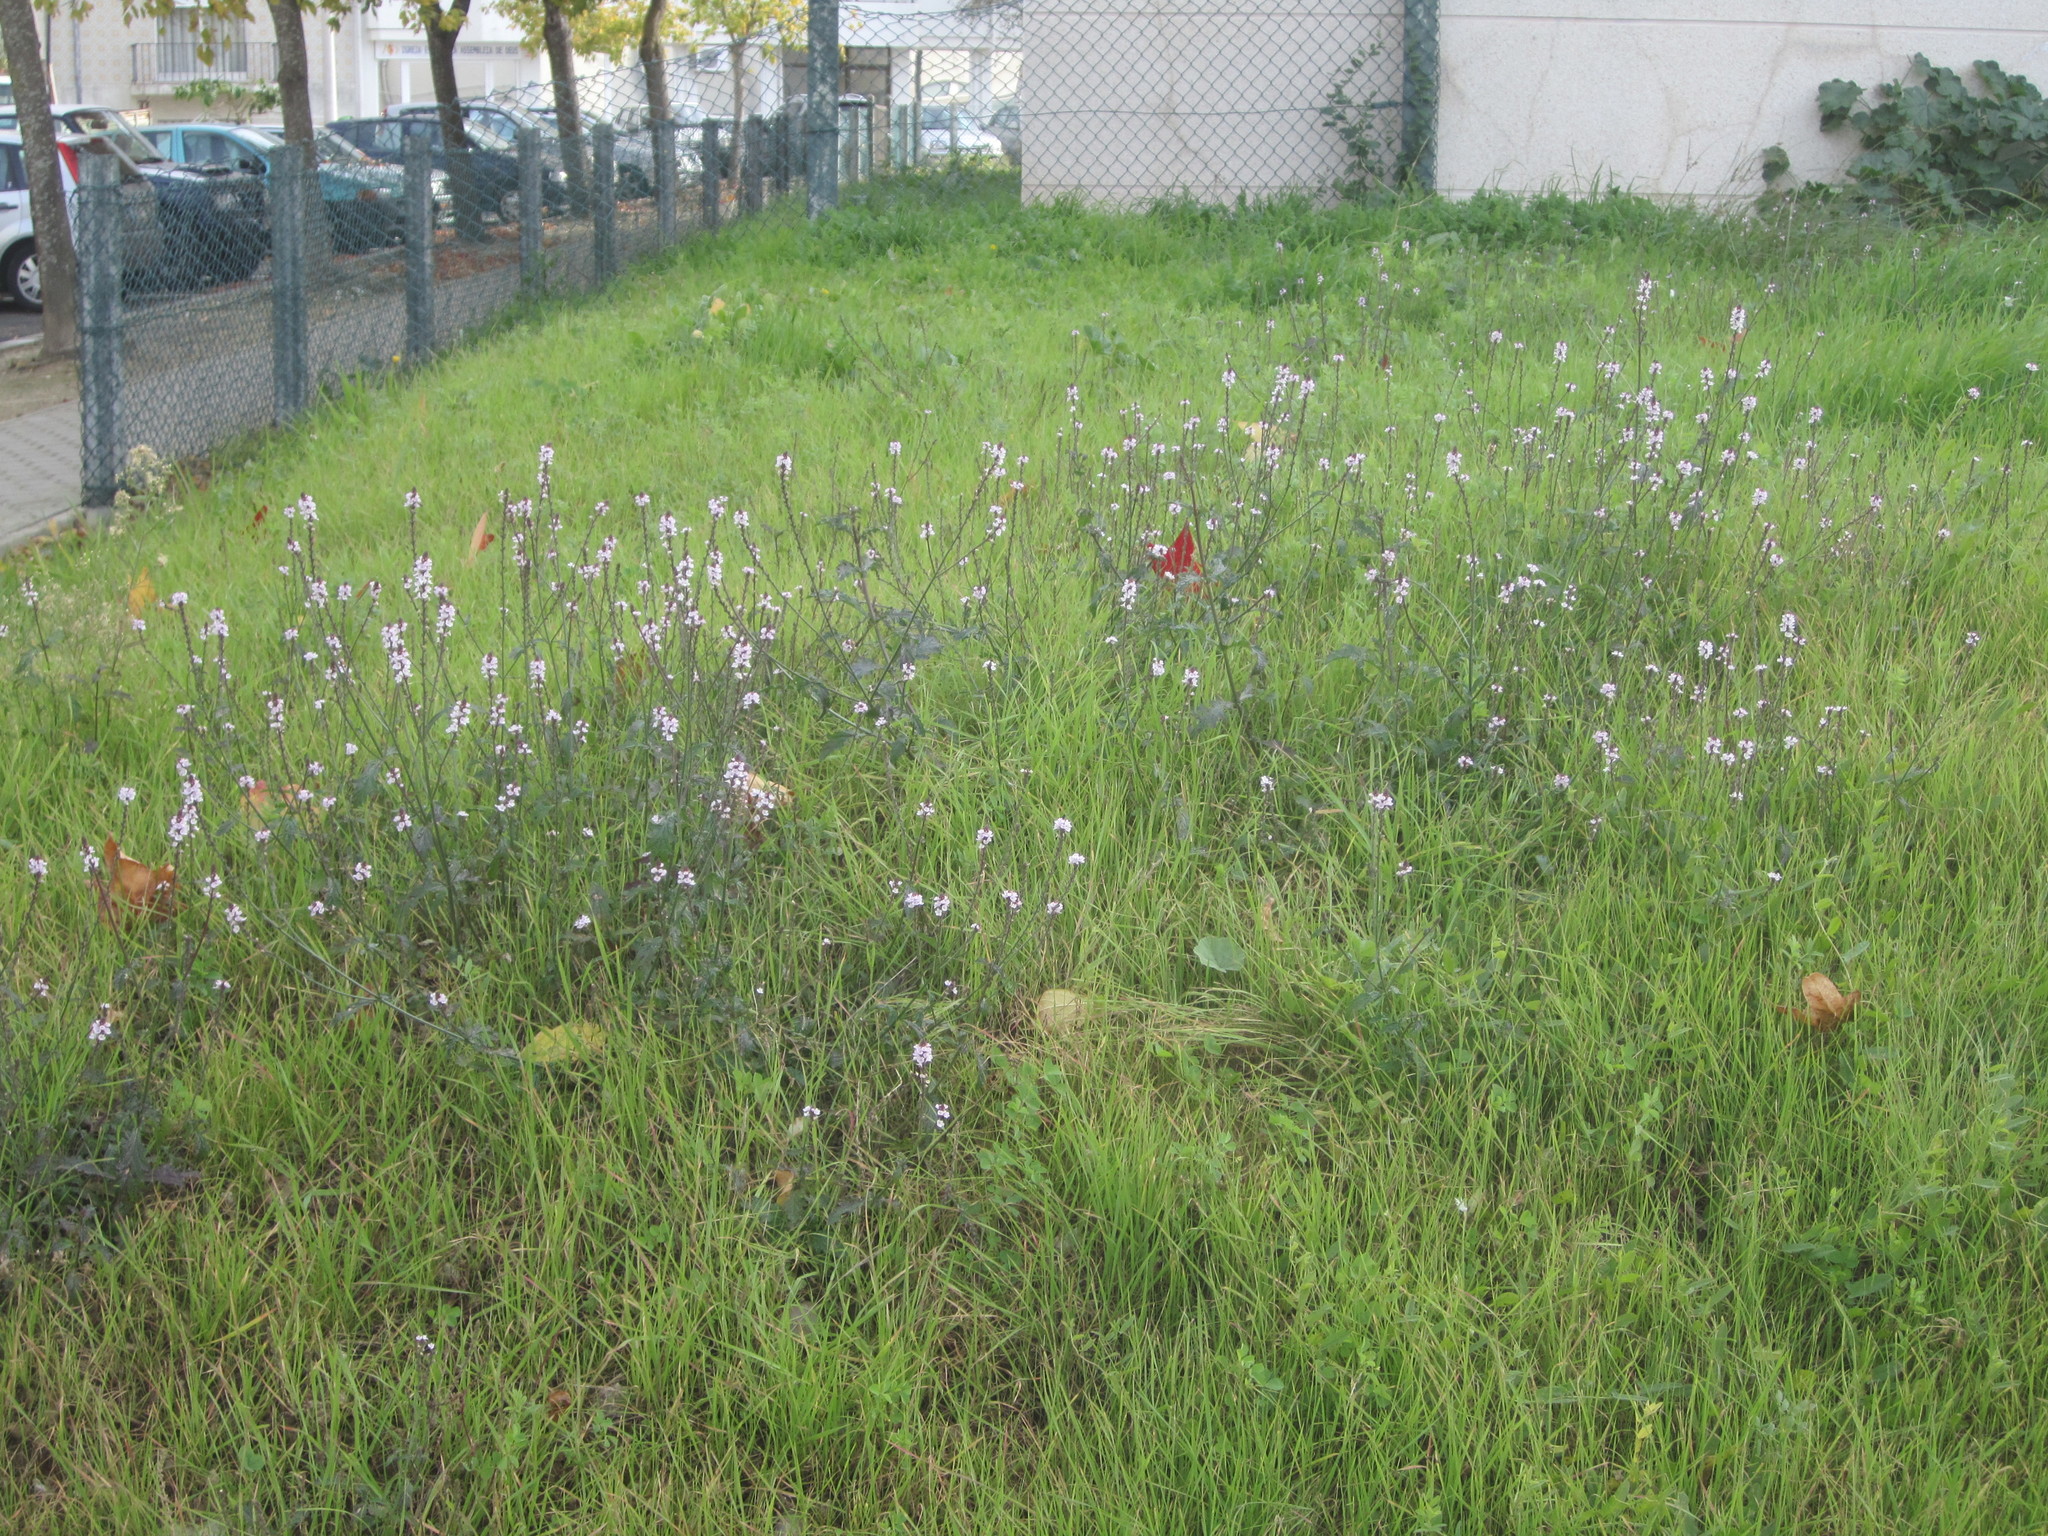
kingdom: Plantae
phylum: Tracheophyta
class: Magnoliopsida
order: Lamiales
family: Verbenaceae
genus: Verbena
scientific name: Verbena officinalis
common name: Vervain
